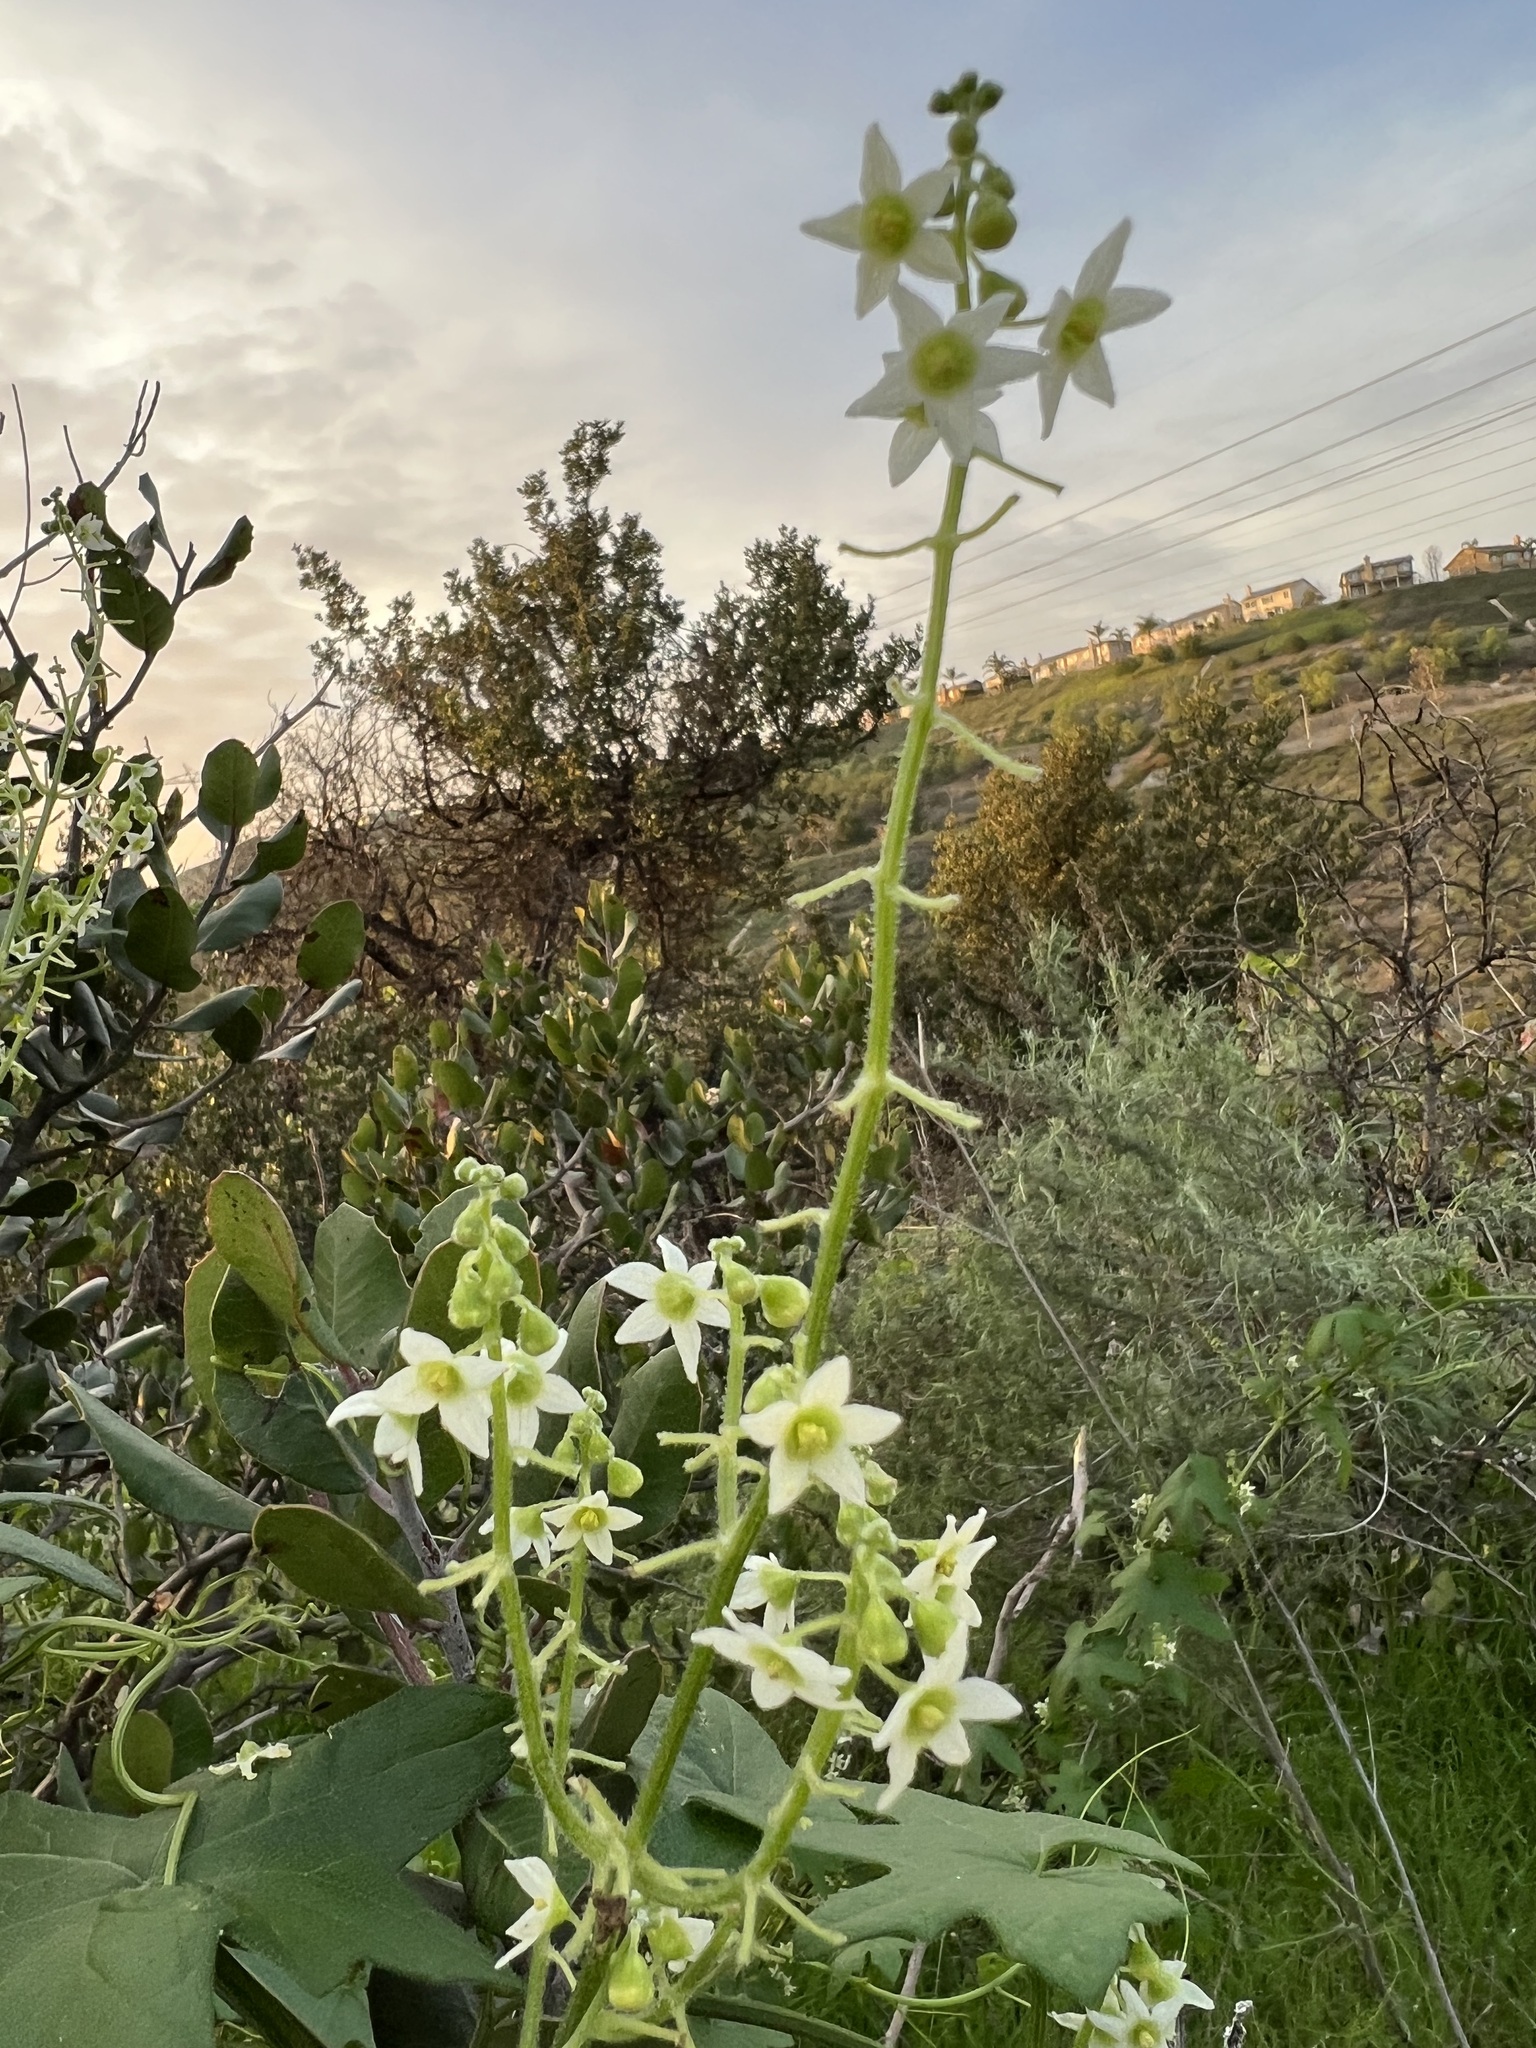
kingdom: Plantae
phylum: Tracheophyta
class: Magnoliopsida
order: Cucurbitales
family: Cucurbitaceae
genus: Marah
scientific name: Marah macrocarpa
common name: Cucamonga manroot
